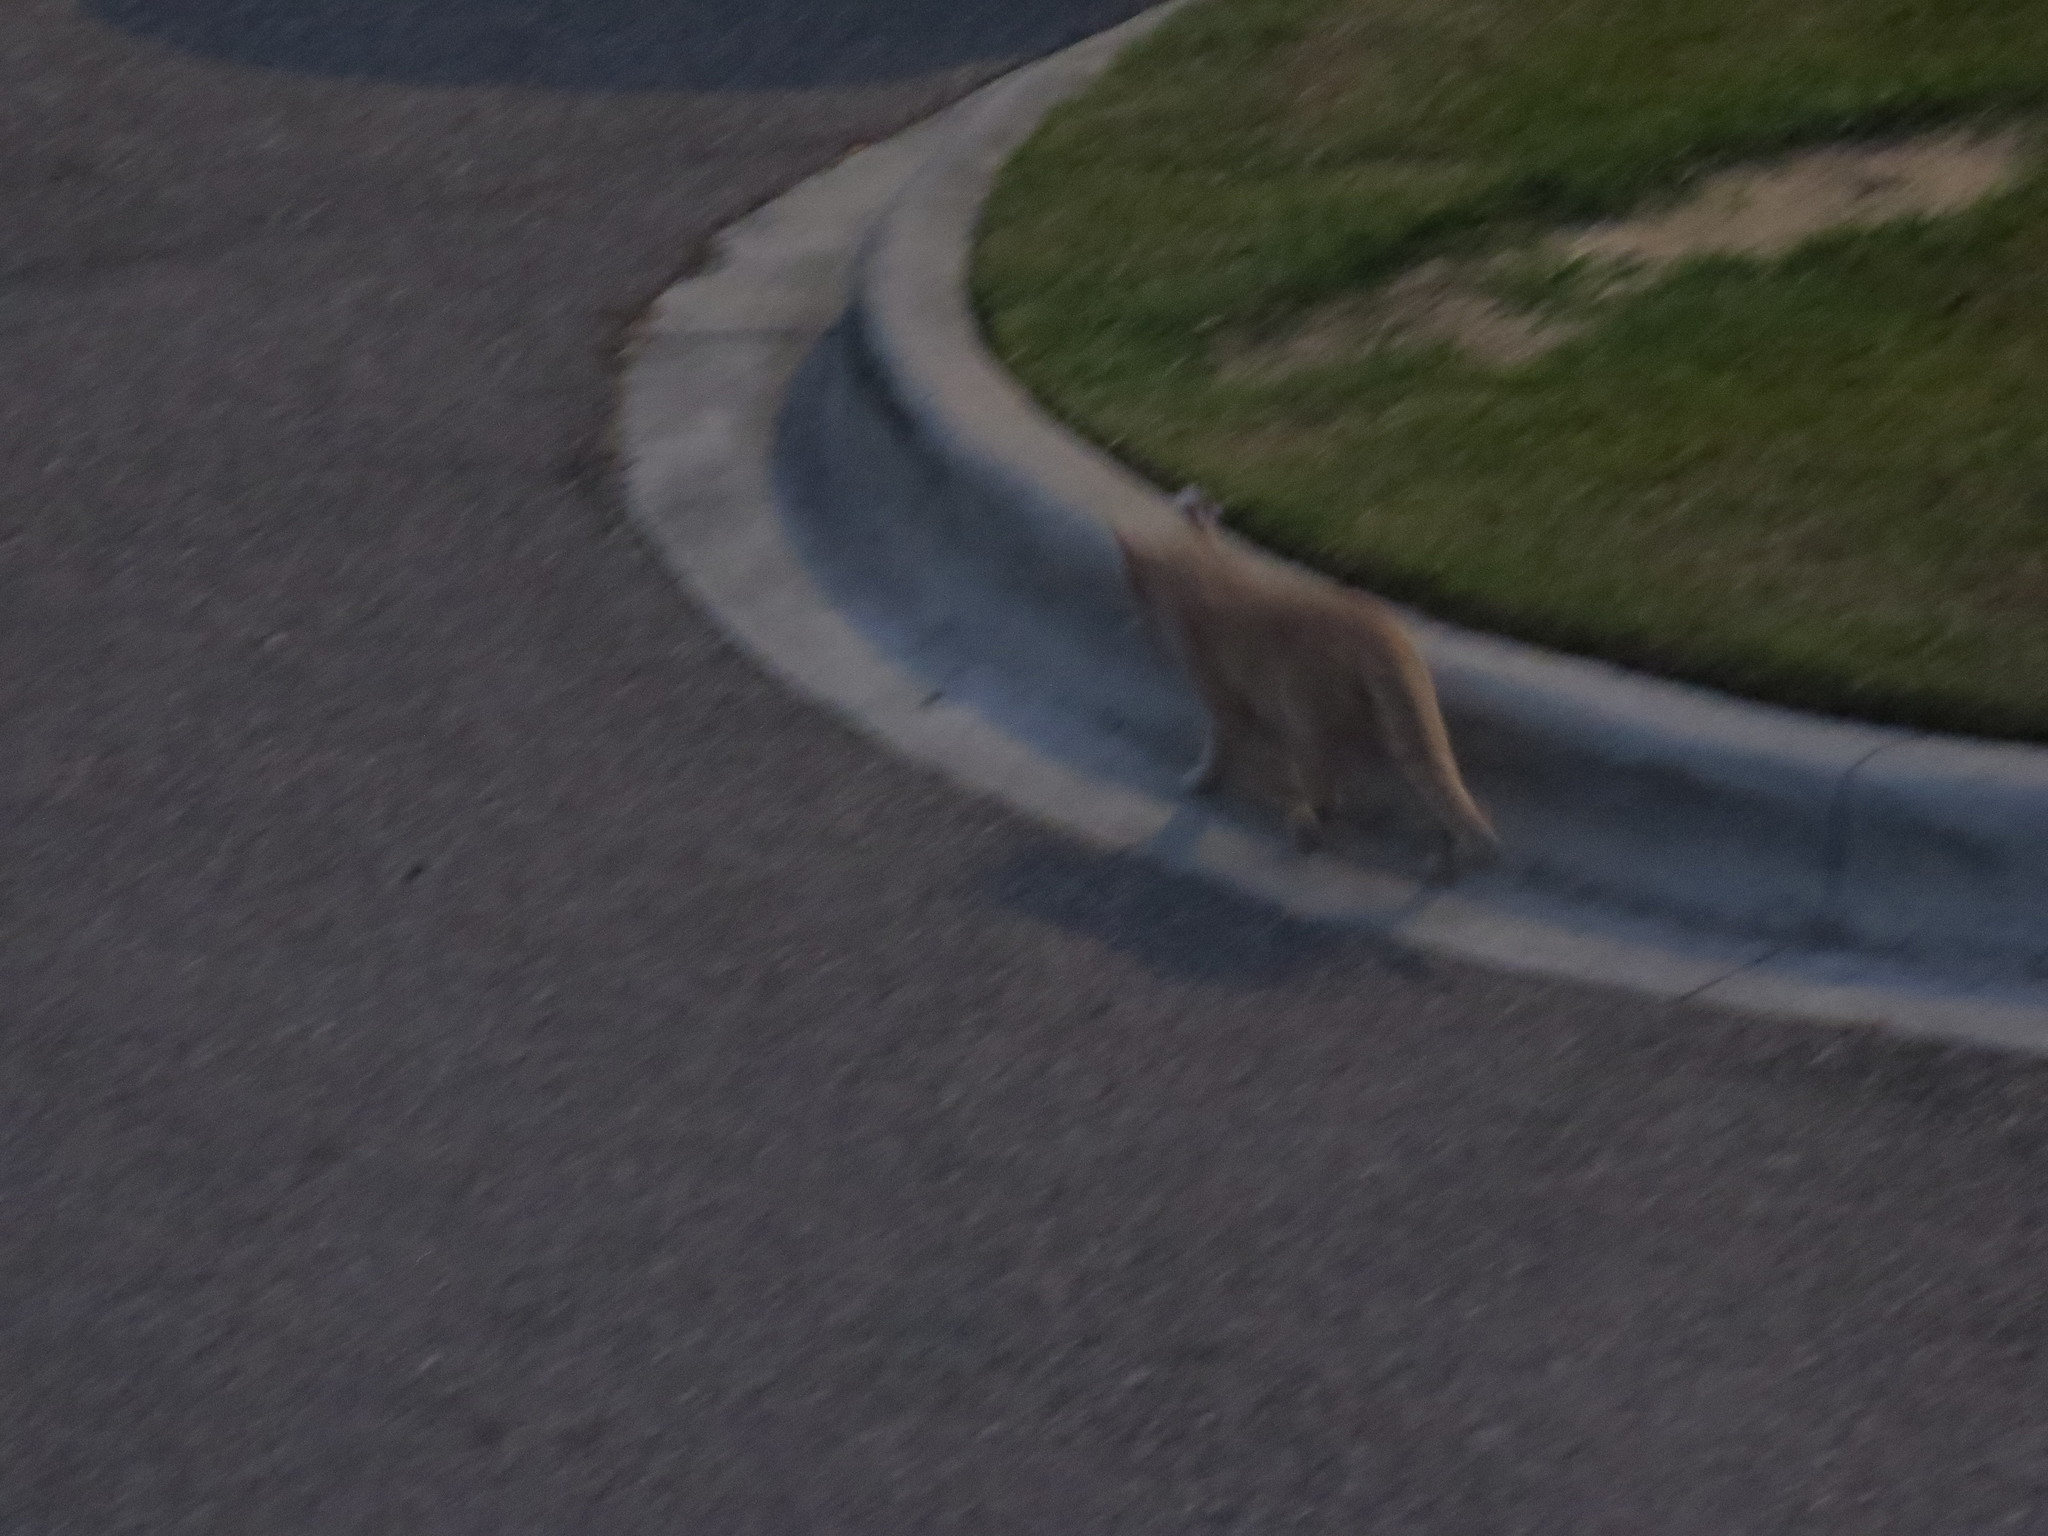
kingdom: Animalia
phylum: Chordata
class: Mammalia
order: Carnivora
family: Felidae
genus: Felis
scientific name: Felis catus
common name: Domestic cat
